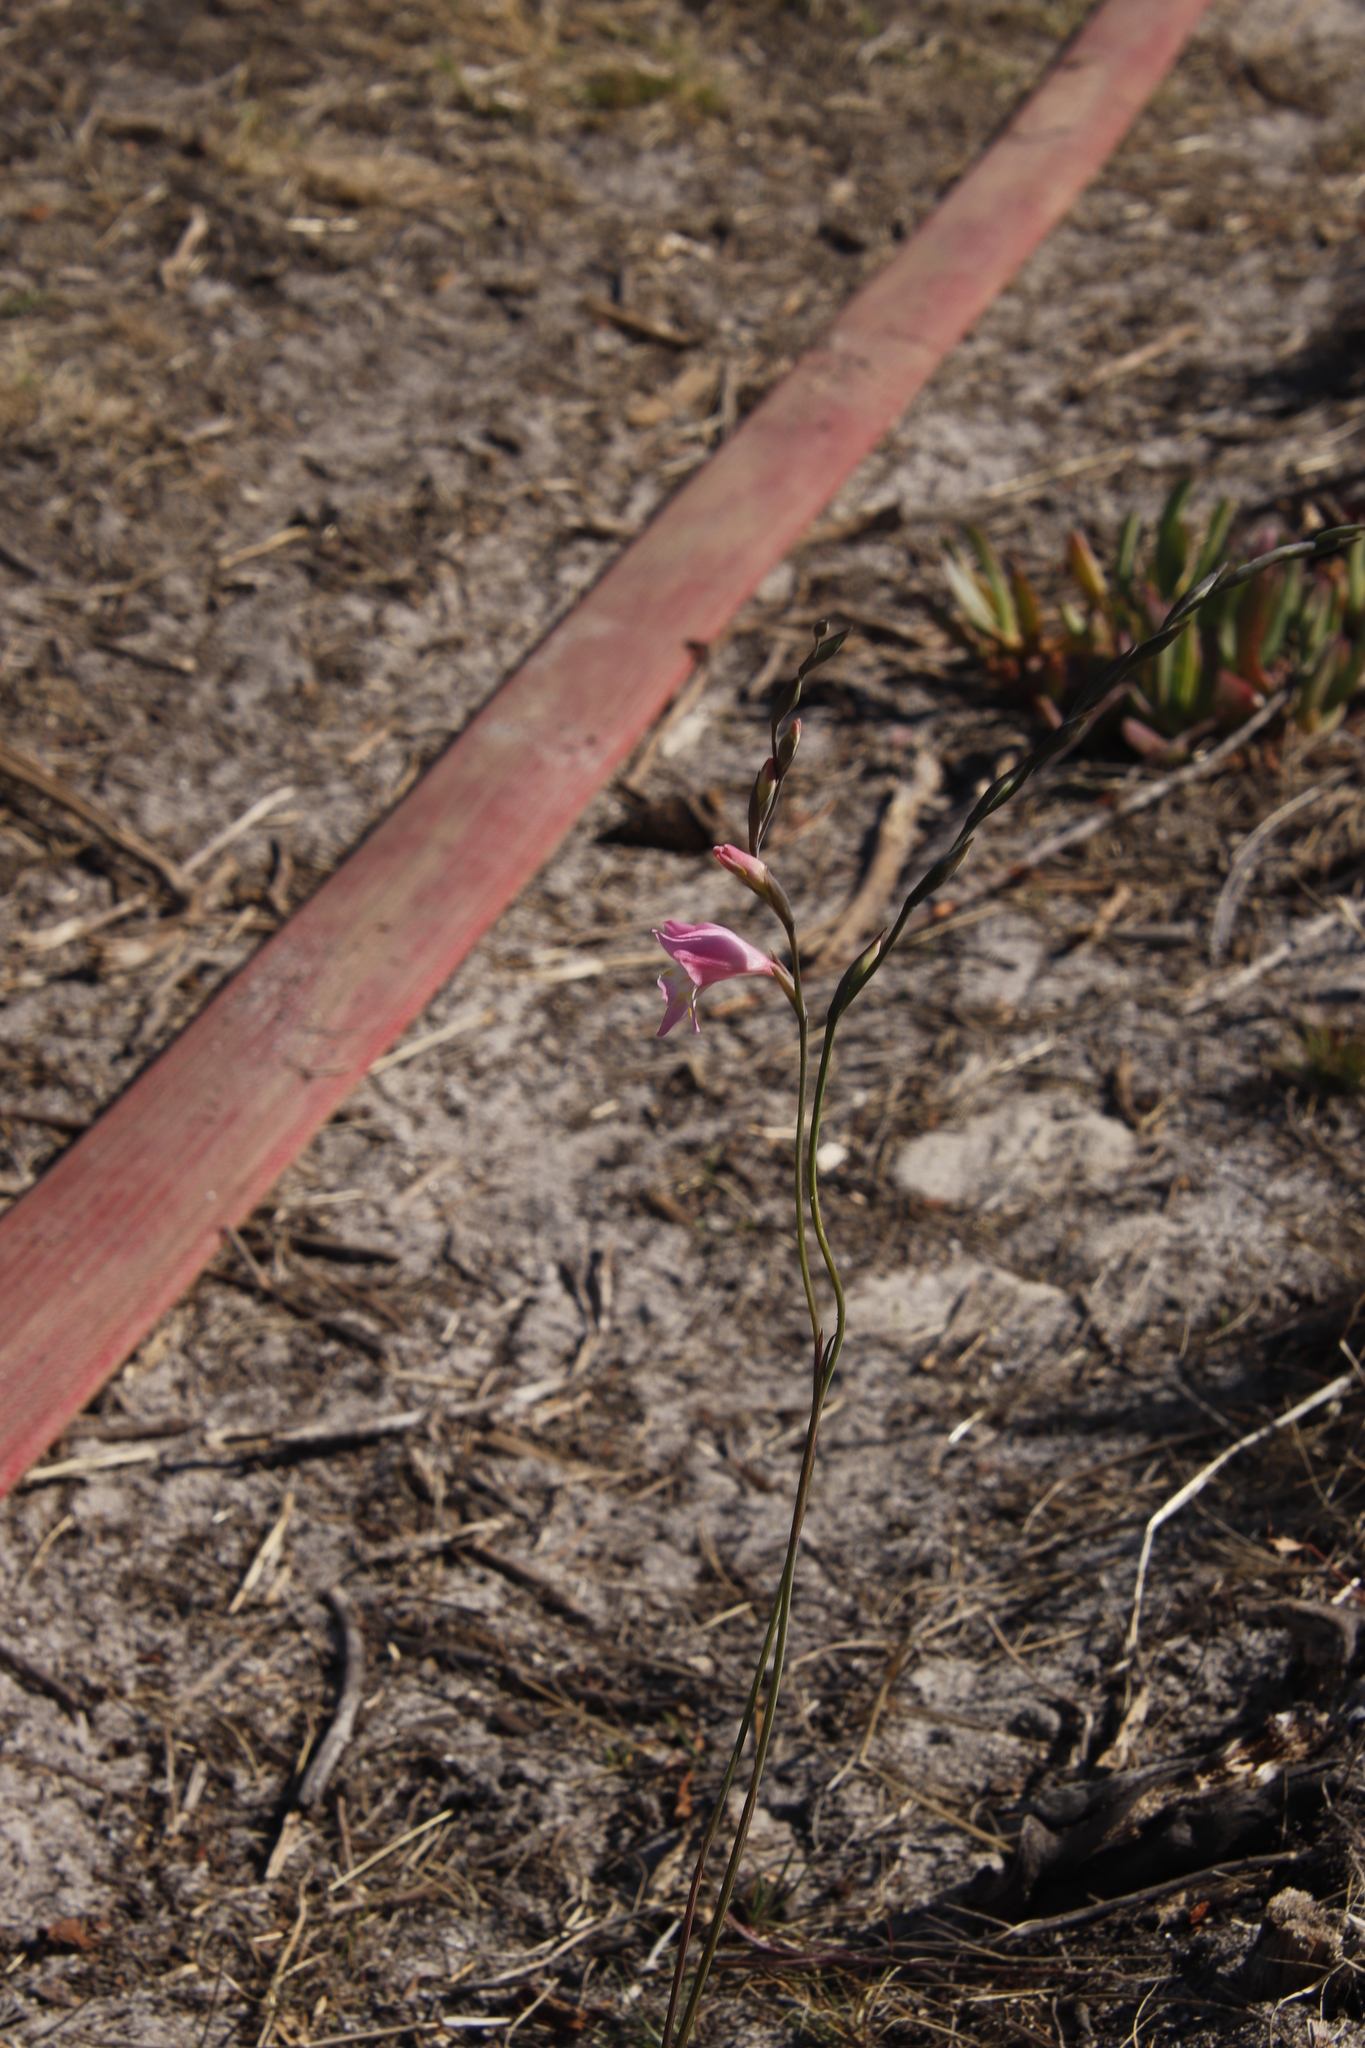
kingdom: Plantae
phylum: Tracheophyta
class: Liliopsida
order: Asparagales
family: Iridaceae
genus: Gladiolus
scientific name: Gladiolus brevifolius
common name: March pypie
